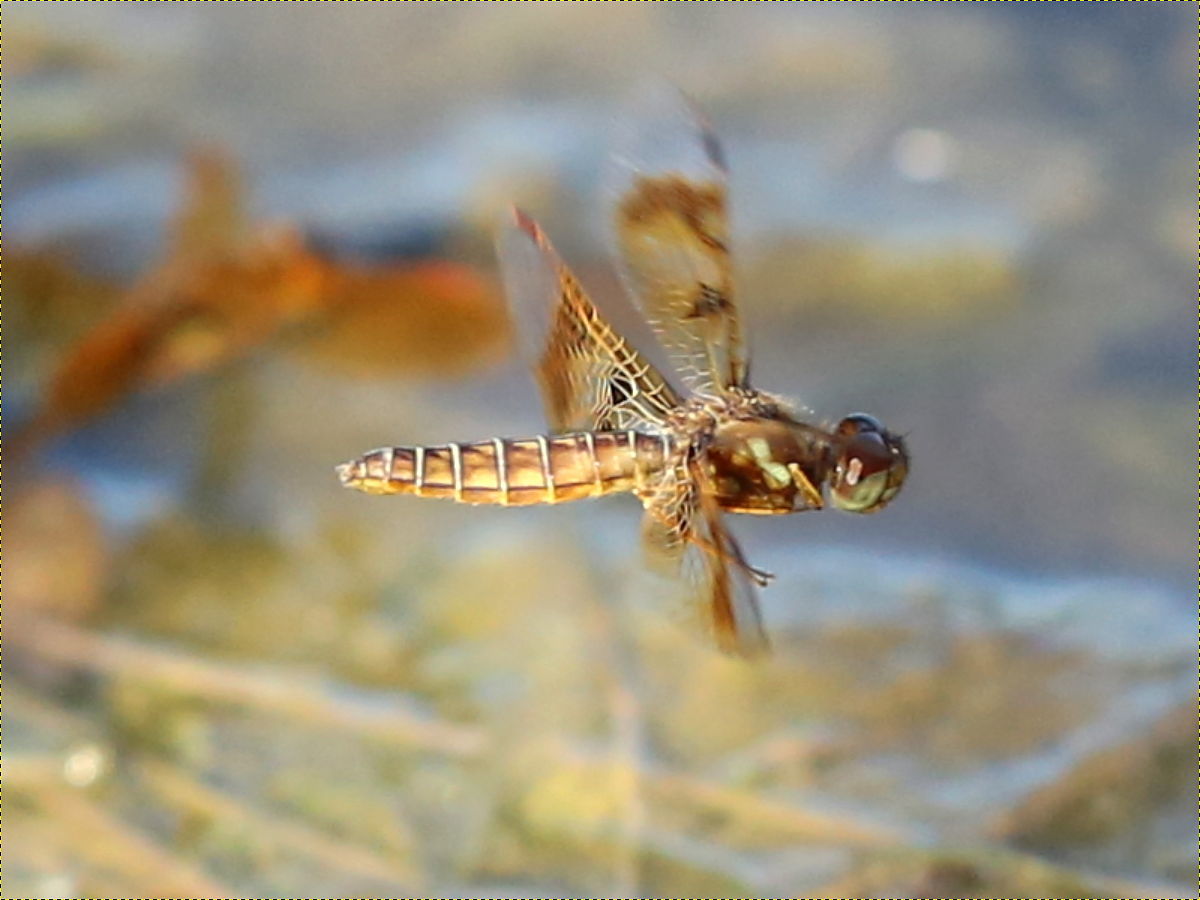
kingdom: Animalia
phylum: Arthropoda
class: Insecta
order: Odonata
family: Libellulidae
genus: Perithemis
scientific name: Perithemis tenera
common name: Eastern amberwing
